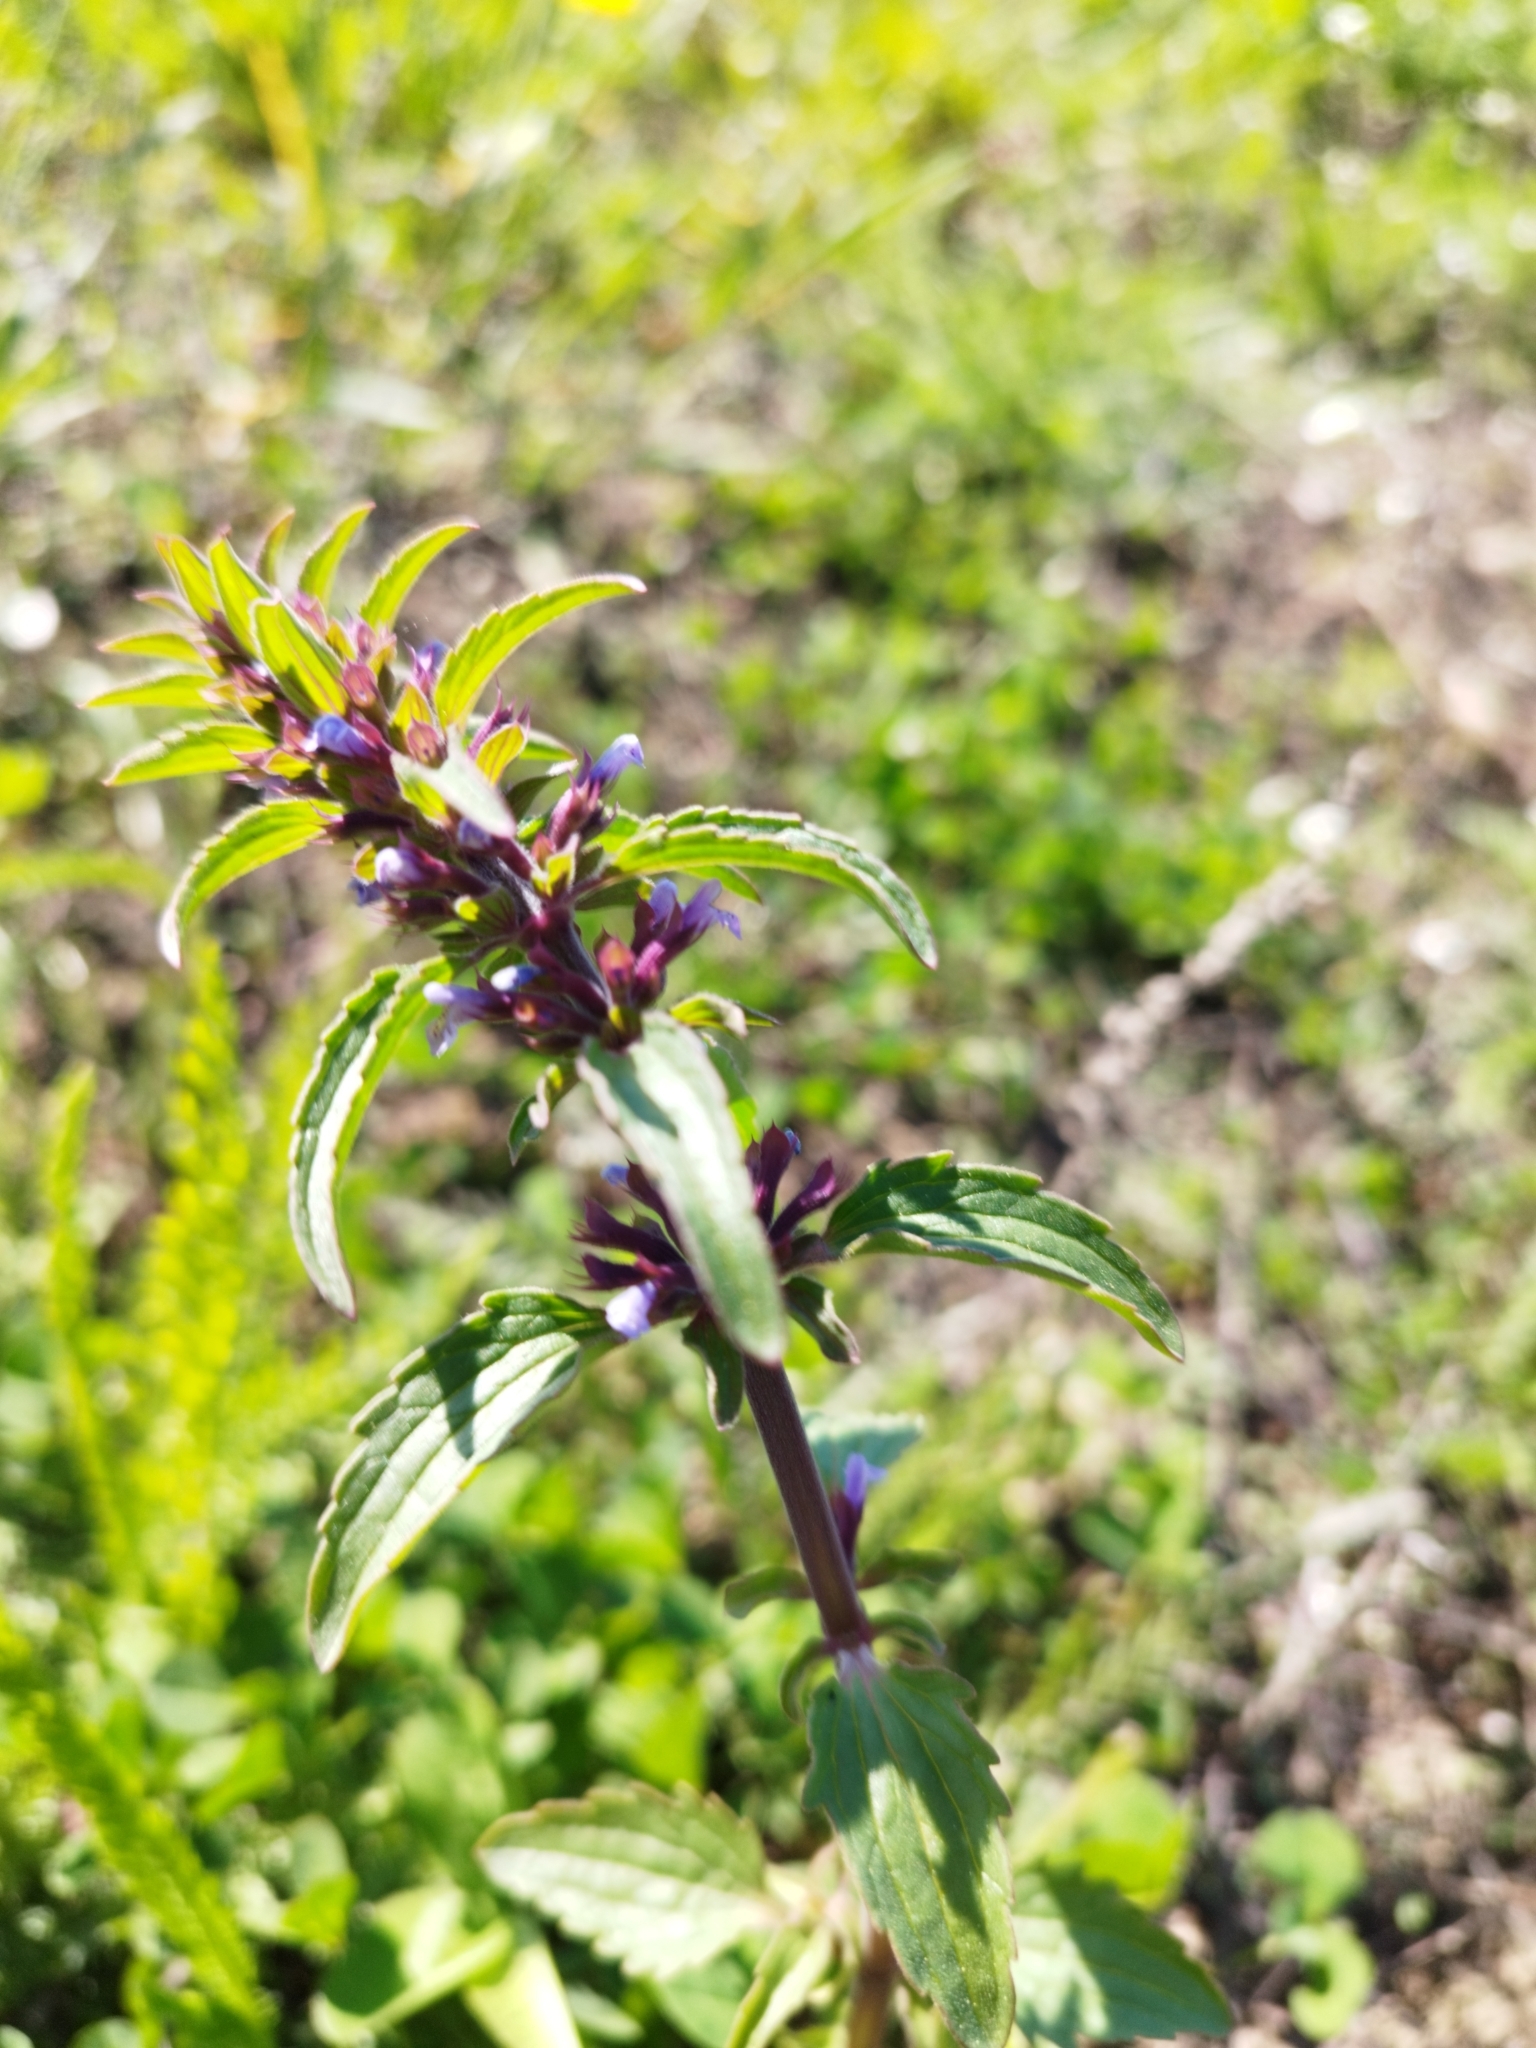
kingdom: Plantae
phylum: Tracheophyta
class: Magnoliopsida
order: Lamiales
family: Lamiaceae
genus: Dracocephalum
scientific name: Dracocephalum thymiflorum
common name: Thymeleaf dragonhead
